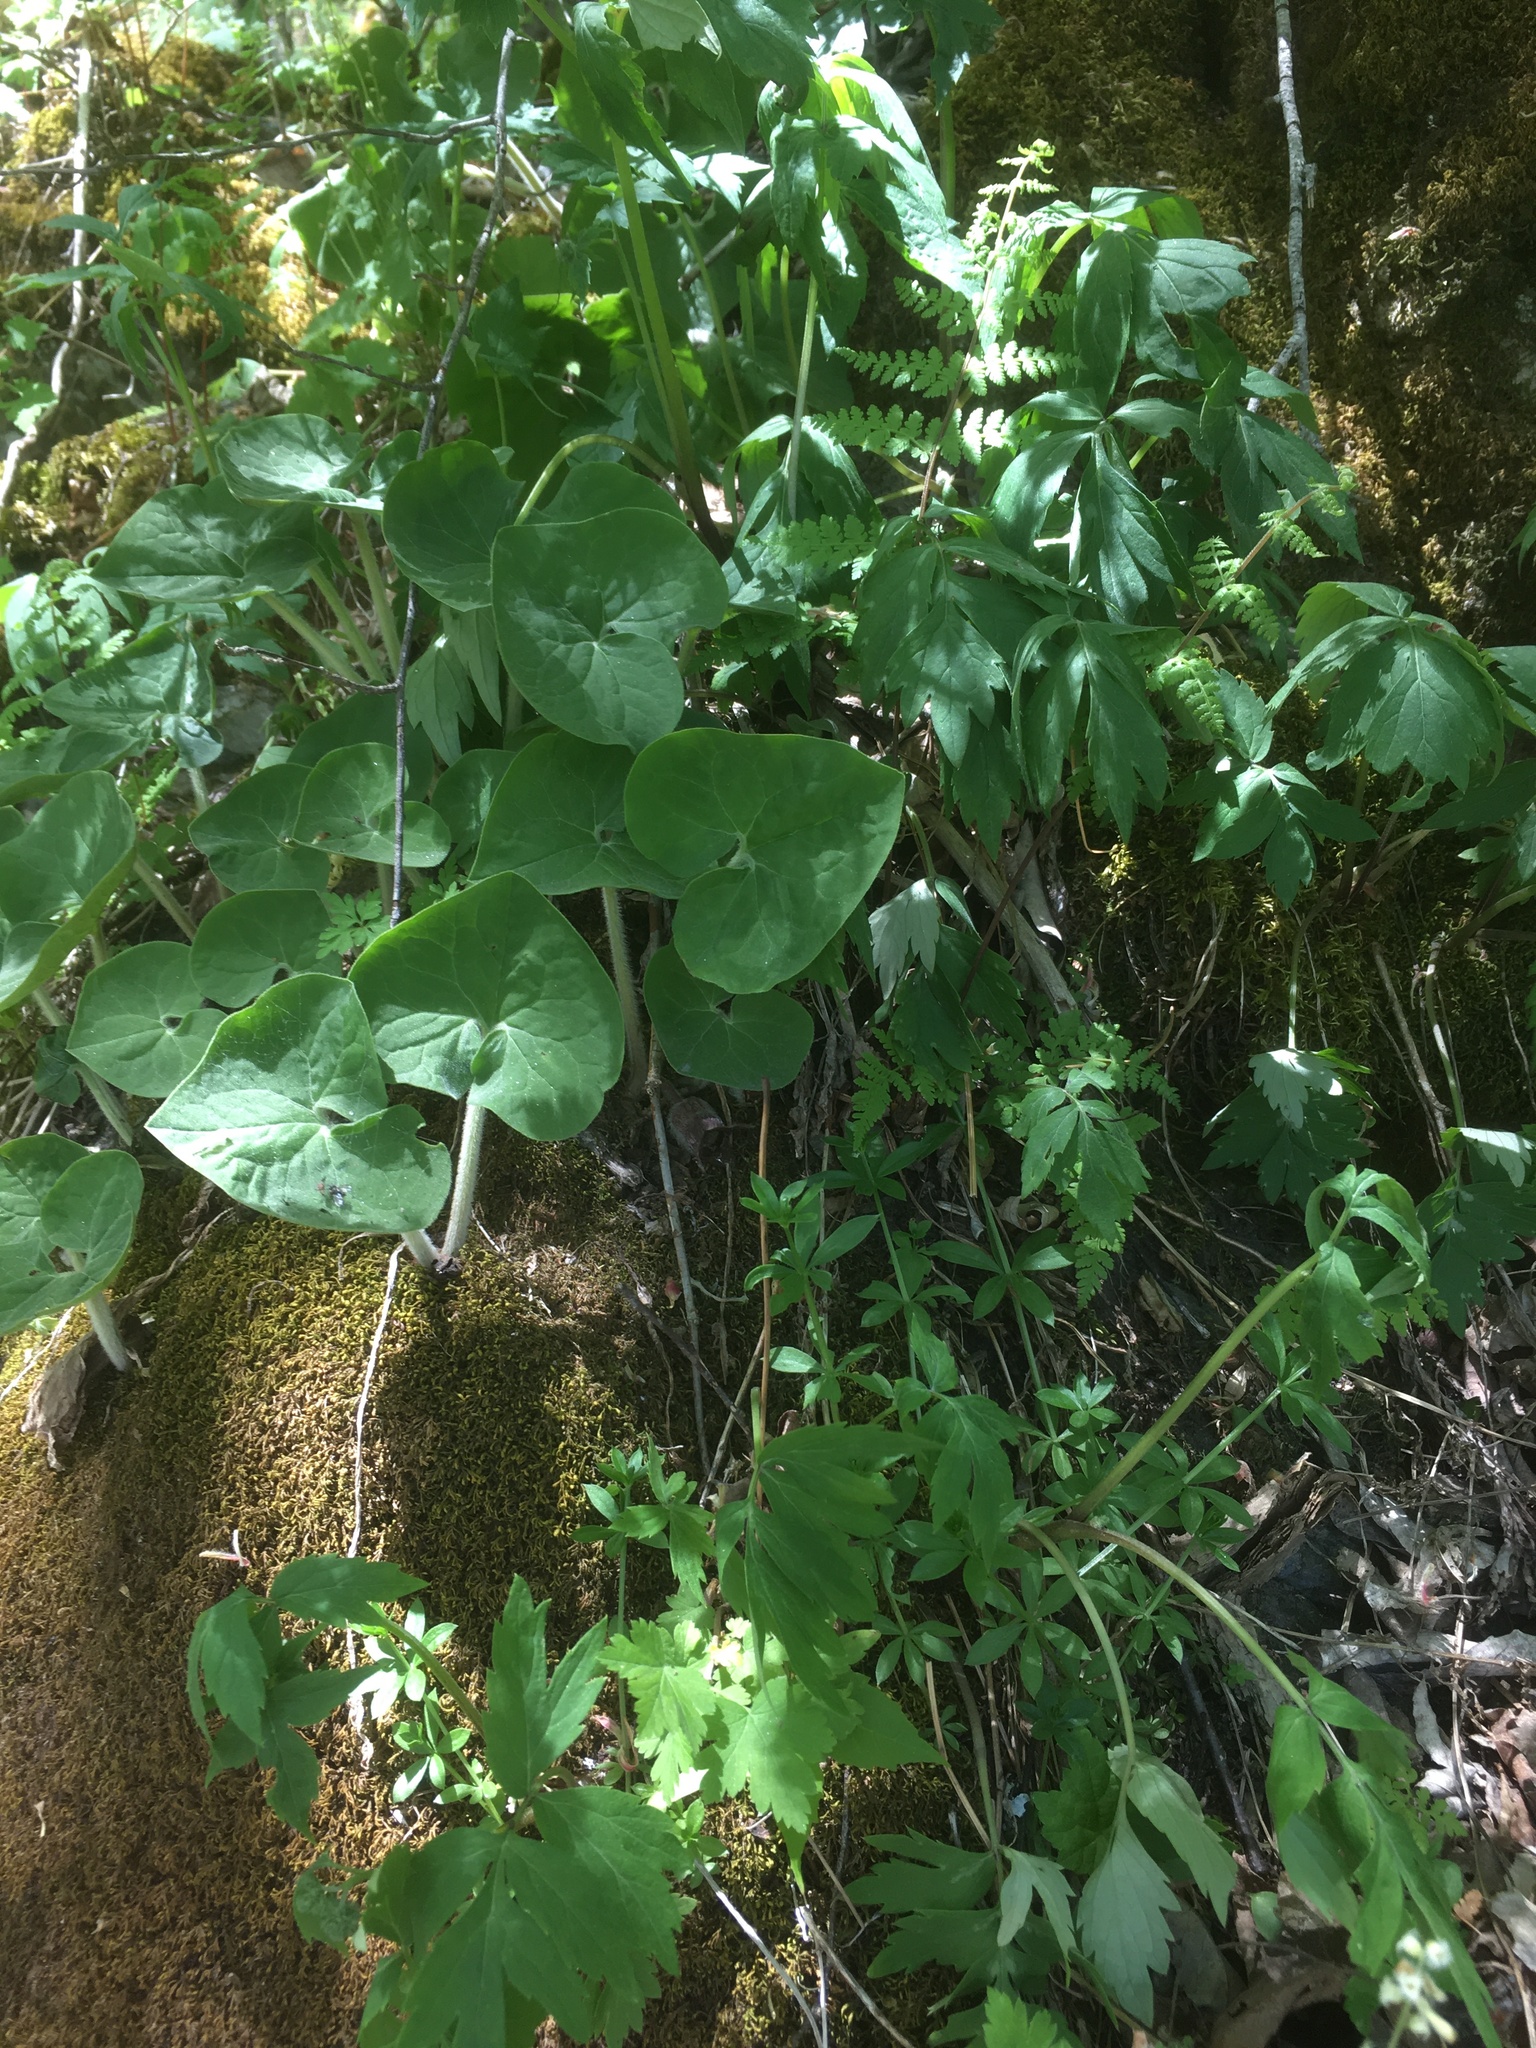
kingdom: Plantae
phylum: Tracheophyta
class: Magnoliopsida
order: Piperales
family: Aristolochiaceae
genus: Asarum
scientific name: Asarum canadense
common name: Wild ginger
